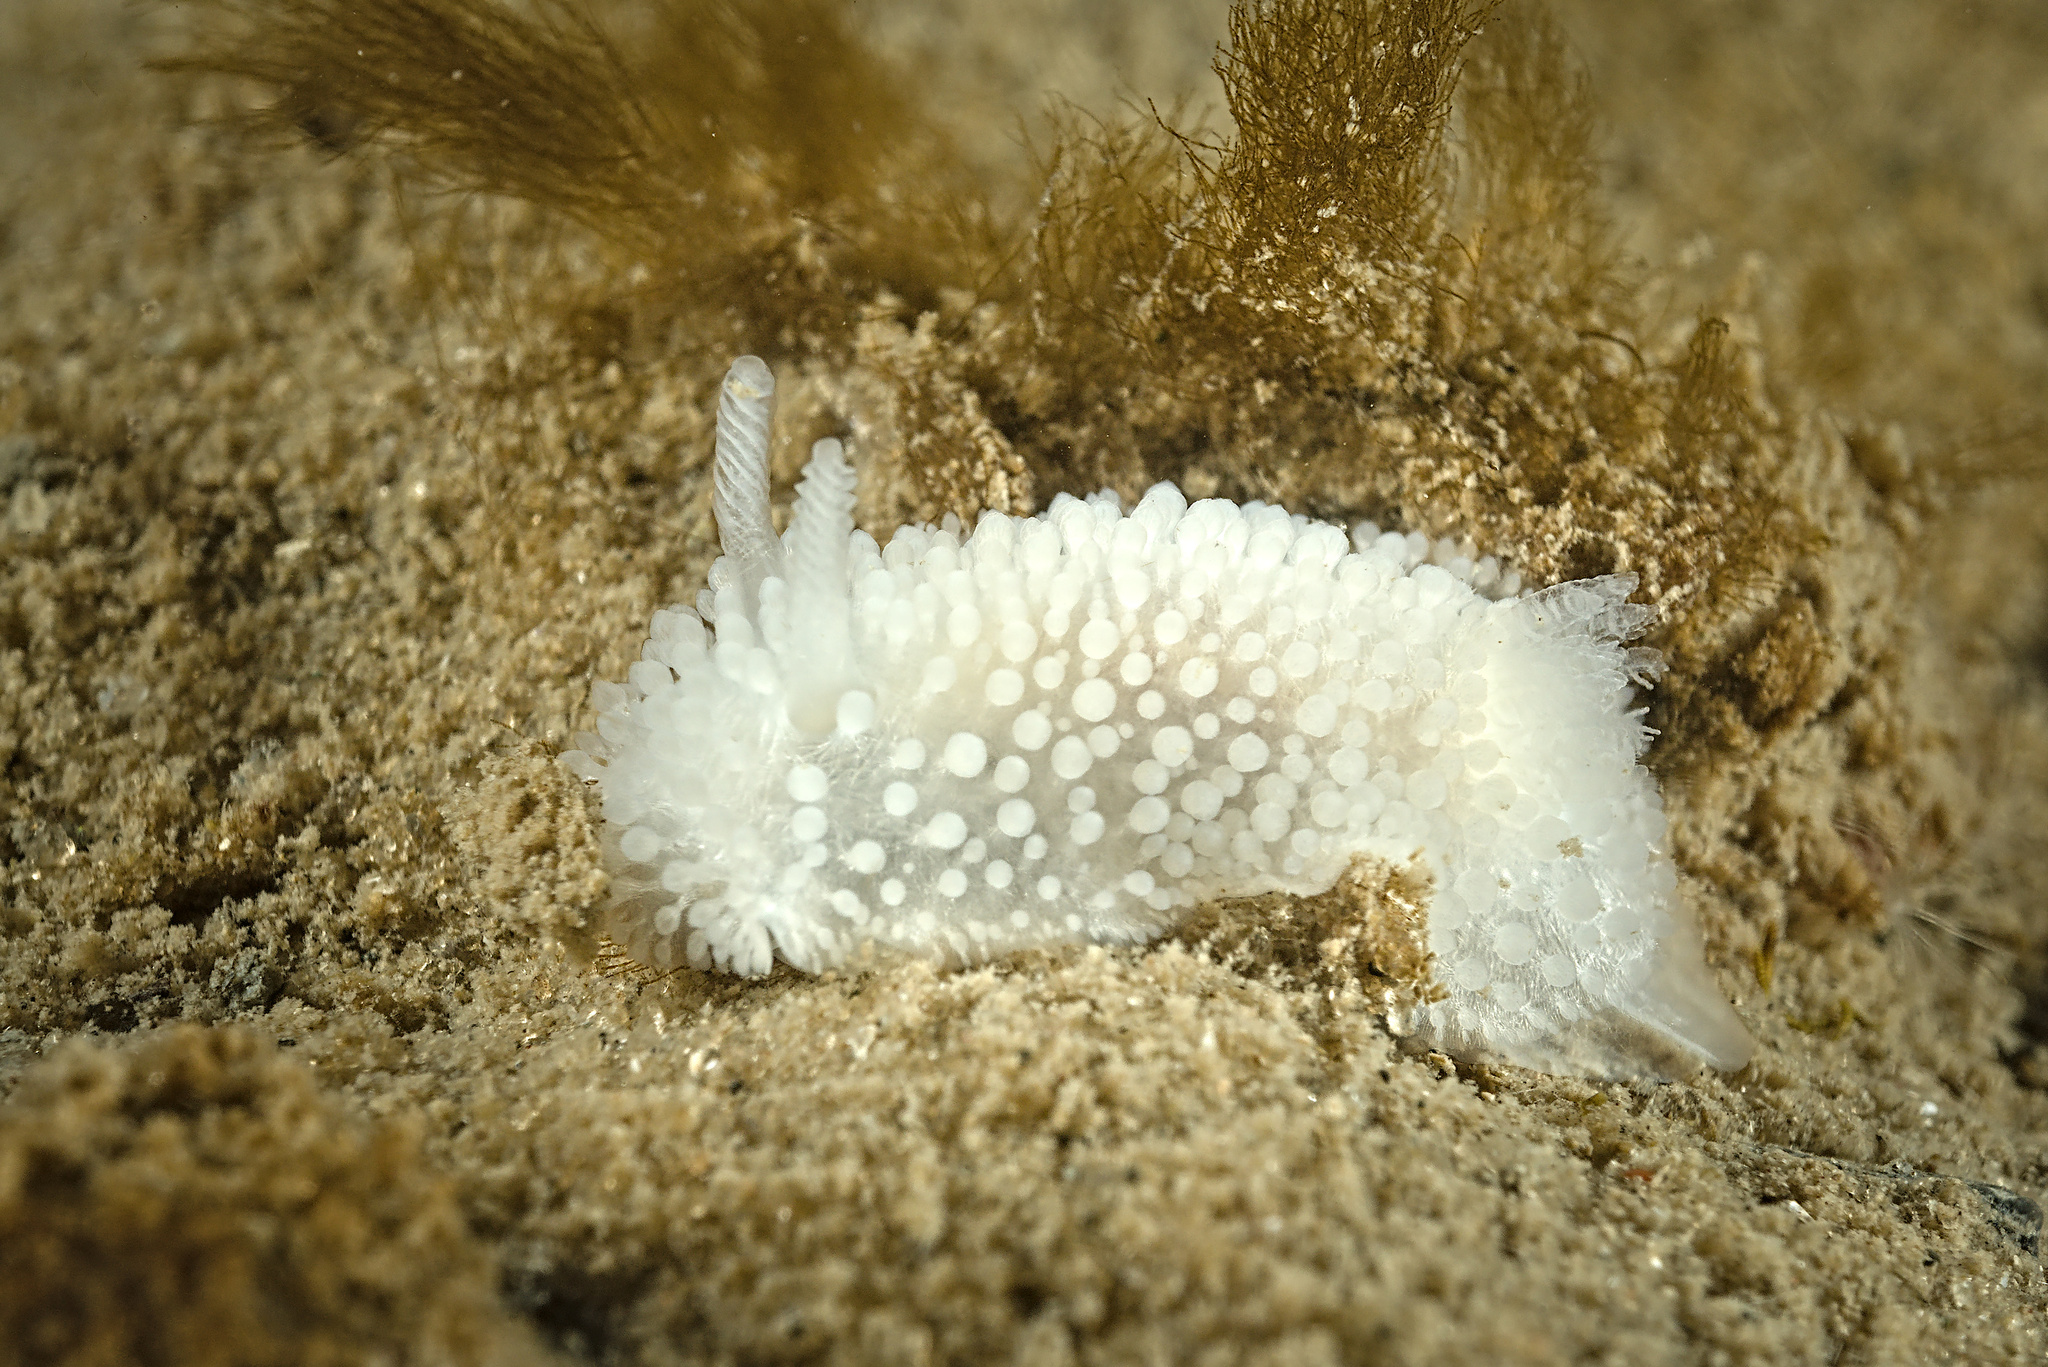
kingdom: Animalia
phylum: Mollusca
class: Gastropoda
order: Nudibranchia
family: Onchidorididae
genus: Onchidoris
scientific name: Onchidoris muricata
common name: Rough doris
